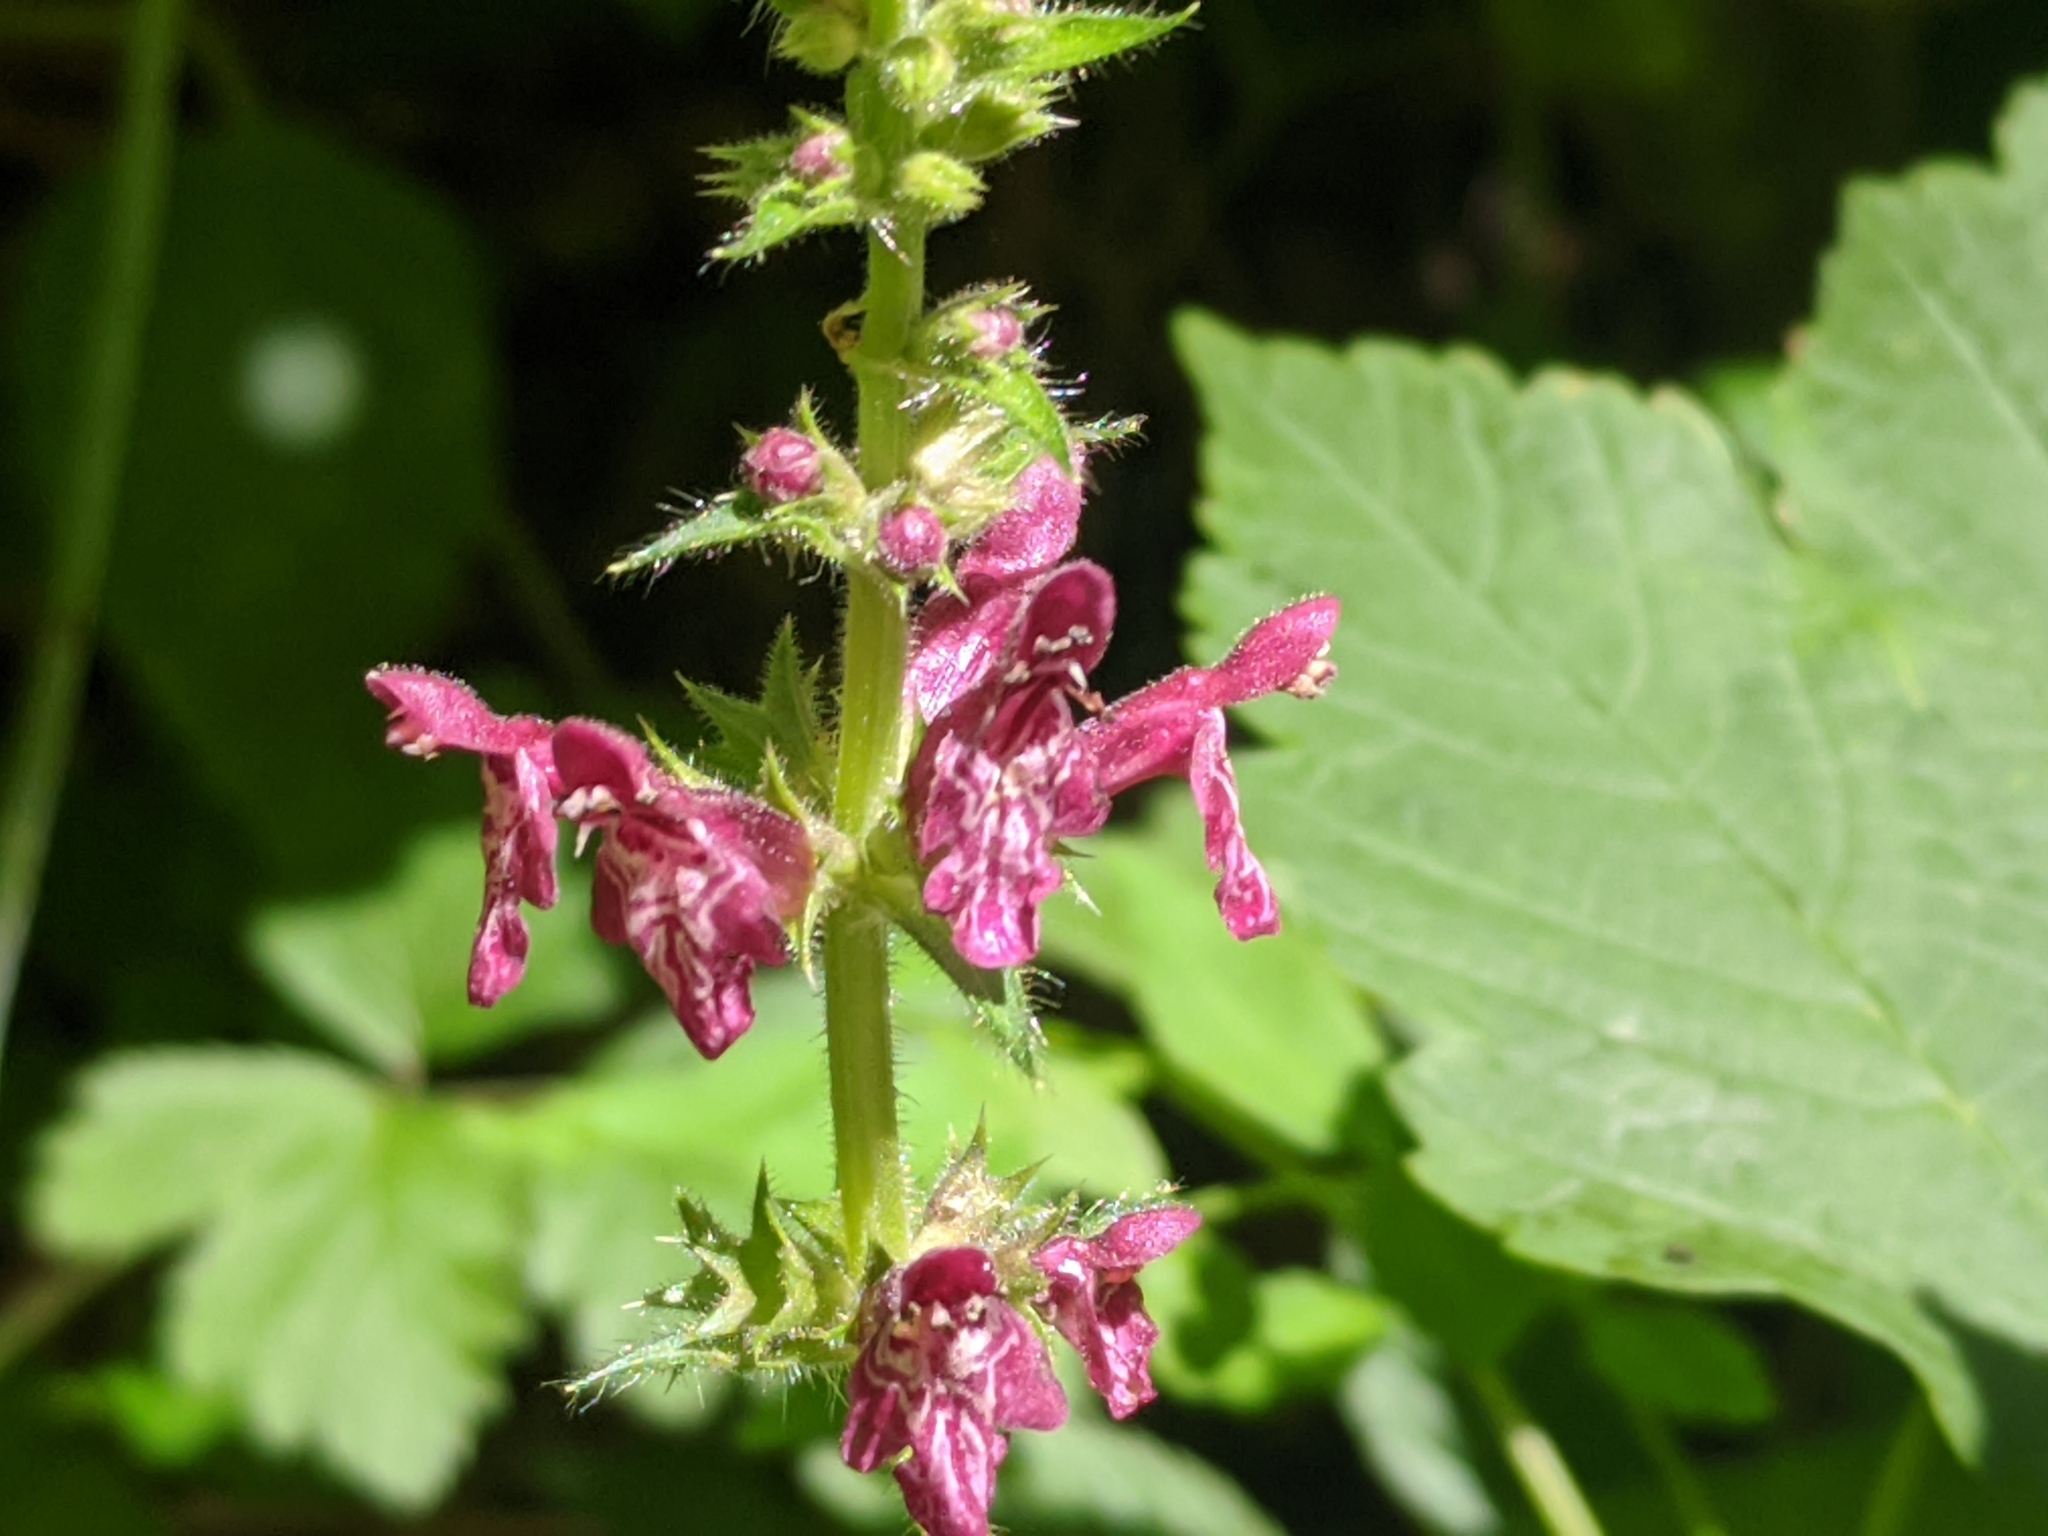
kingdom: Plantae
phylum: Tracheophyta
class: Magnoliopsida
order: Lamiales
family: Lamiaceae
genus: Stachys
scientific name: Stachys sylvatica
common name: Hedge woundwort
